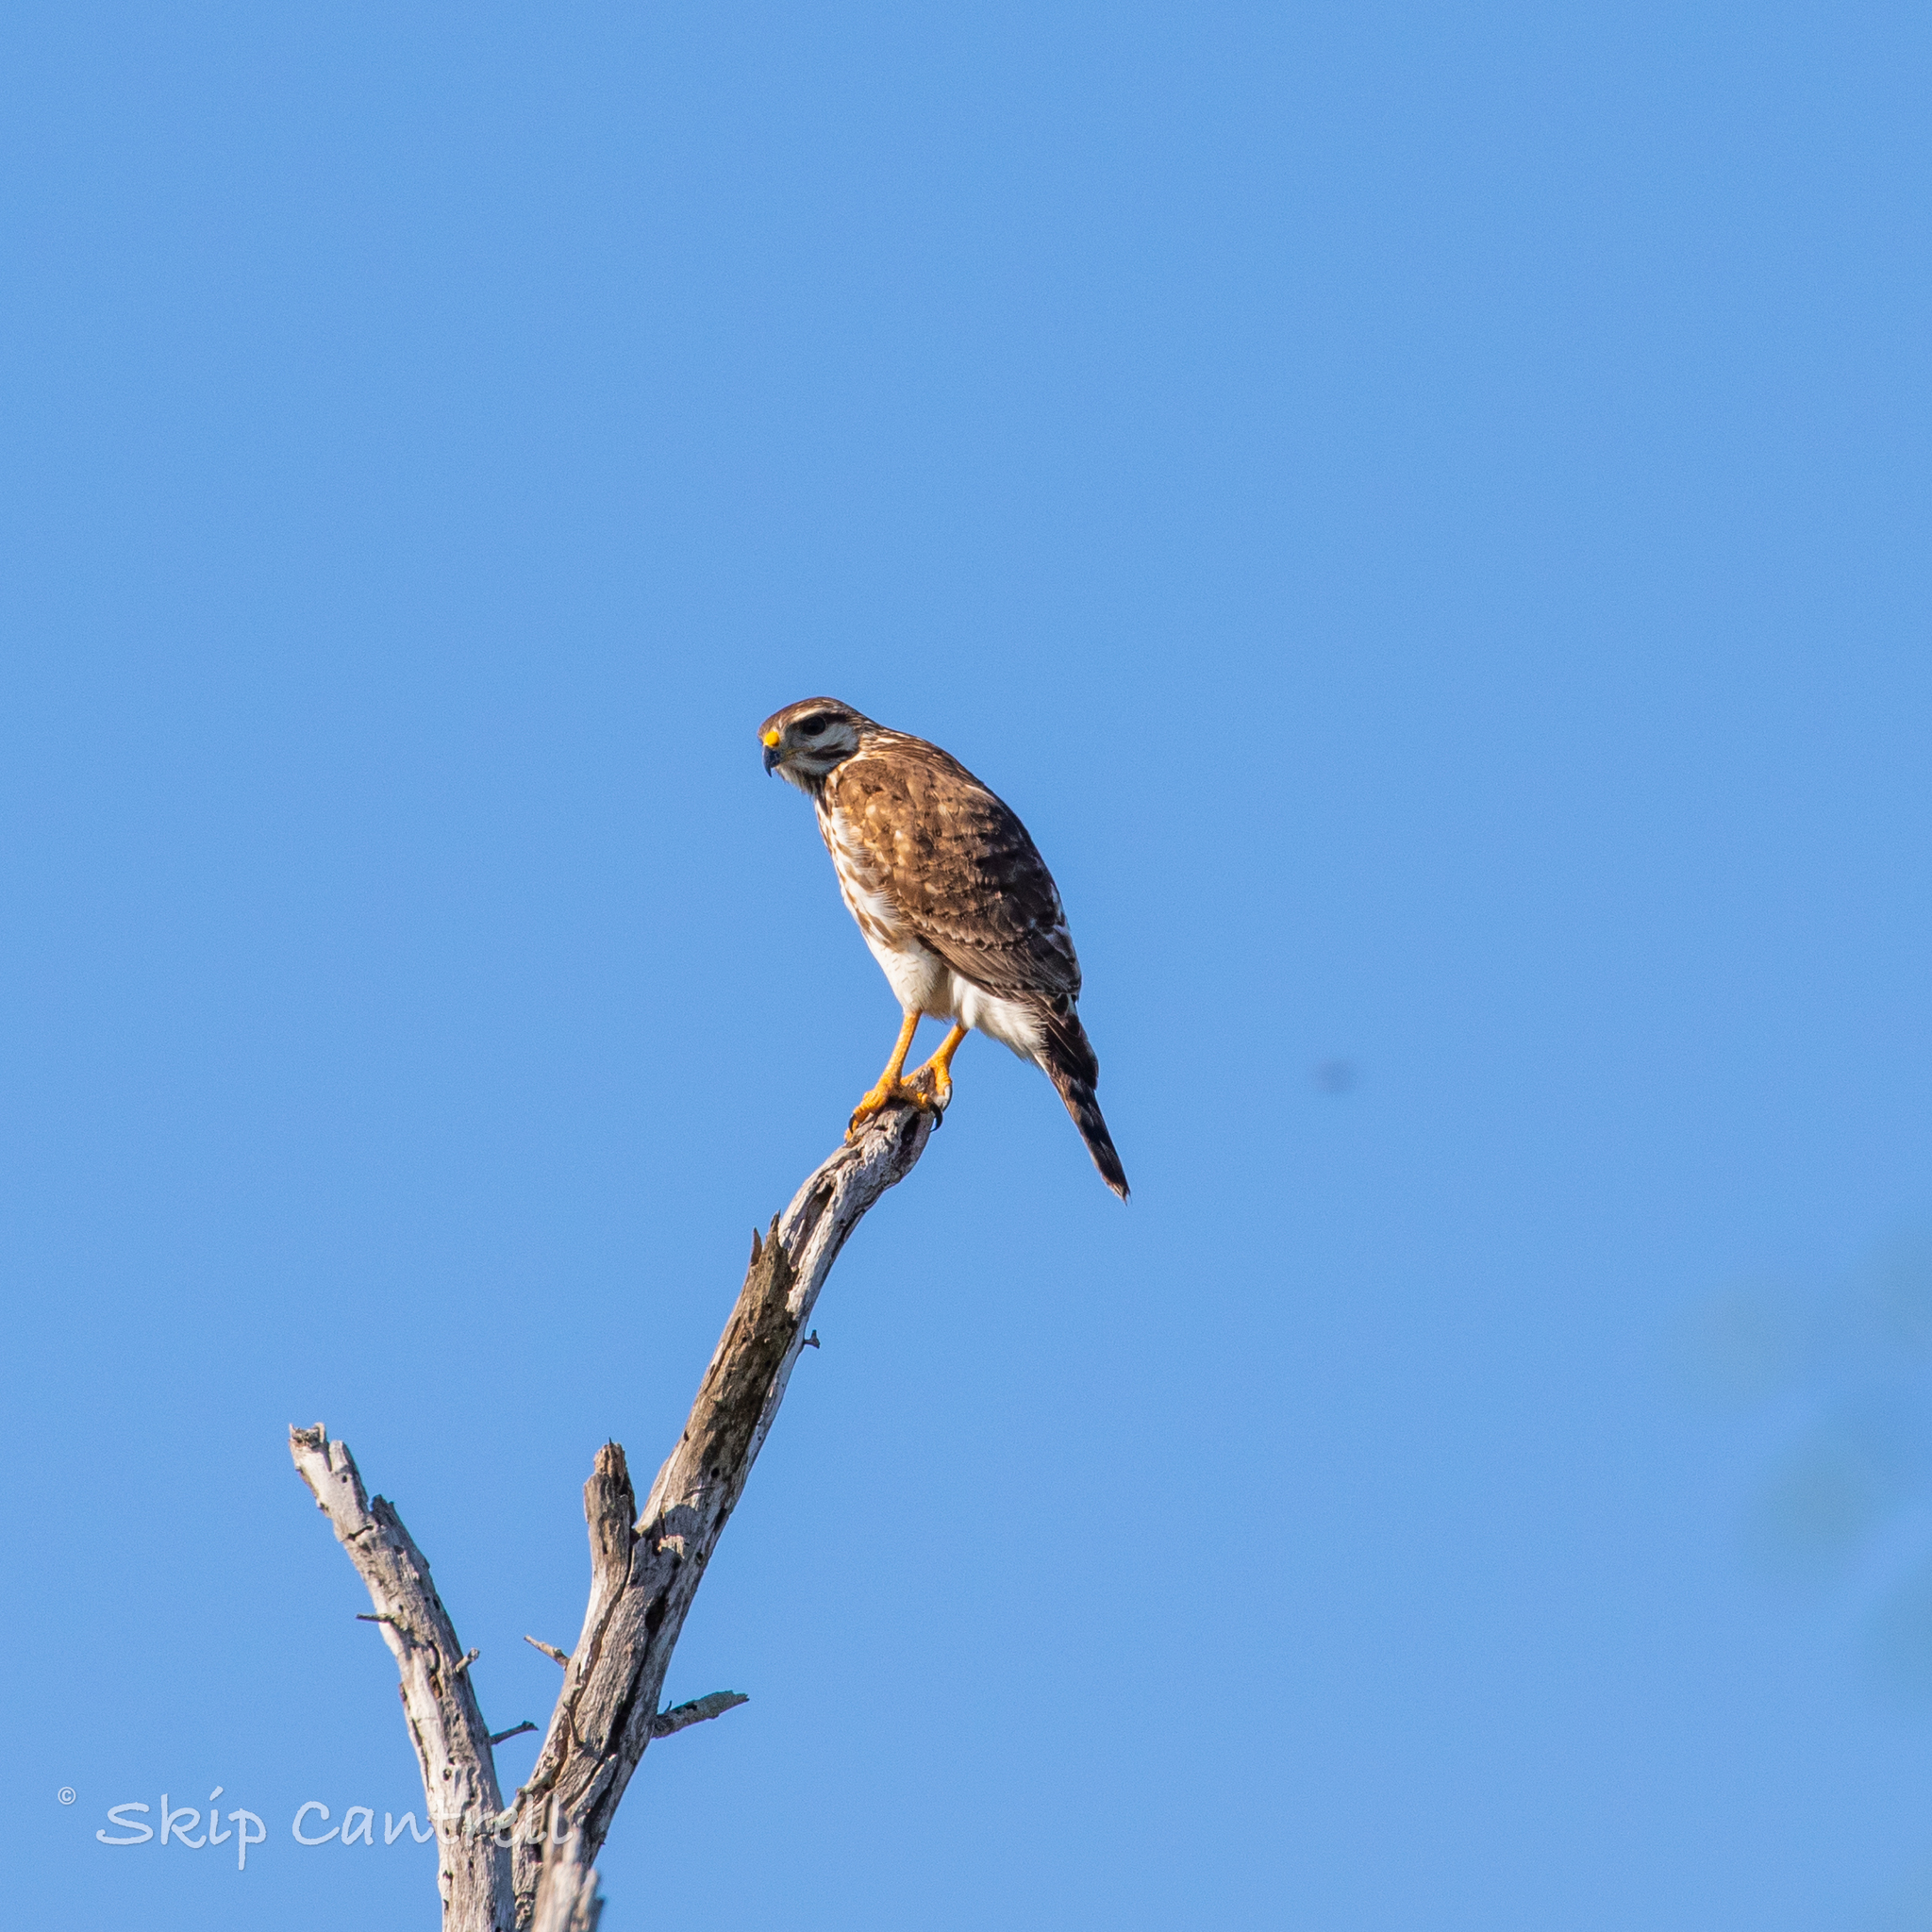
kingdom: Animalia
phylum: Chordata
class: Aves
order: Accipitriformes
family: Accipitridae
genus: Buteo
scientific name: Buteo nitidus
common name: Grey-lined hawk
